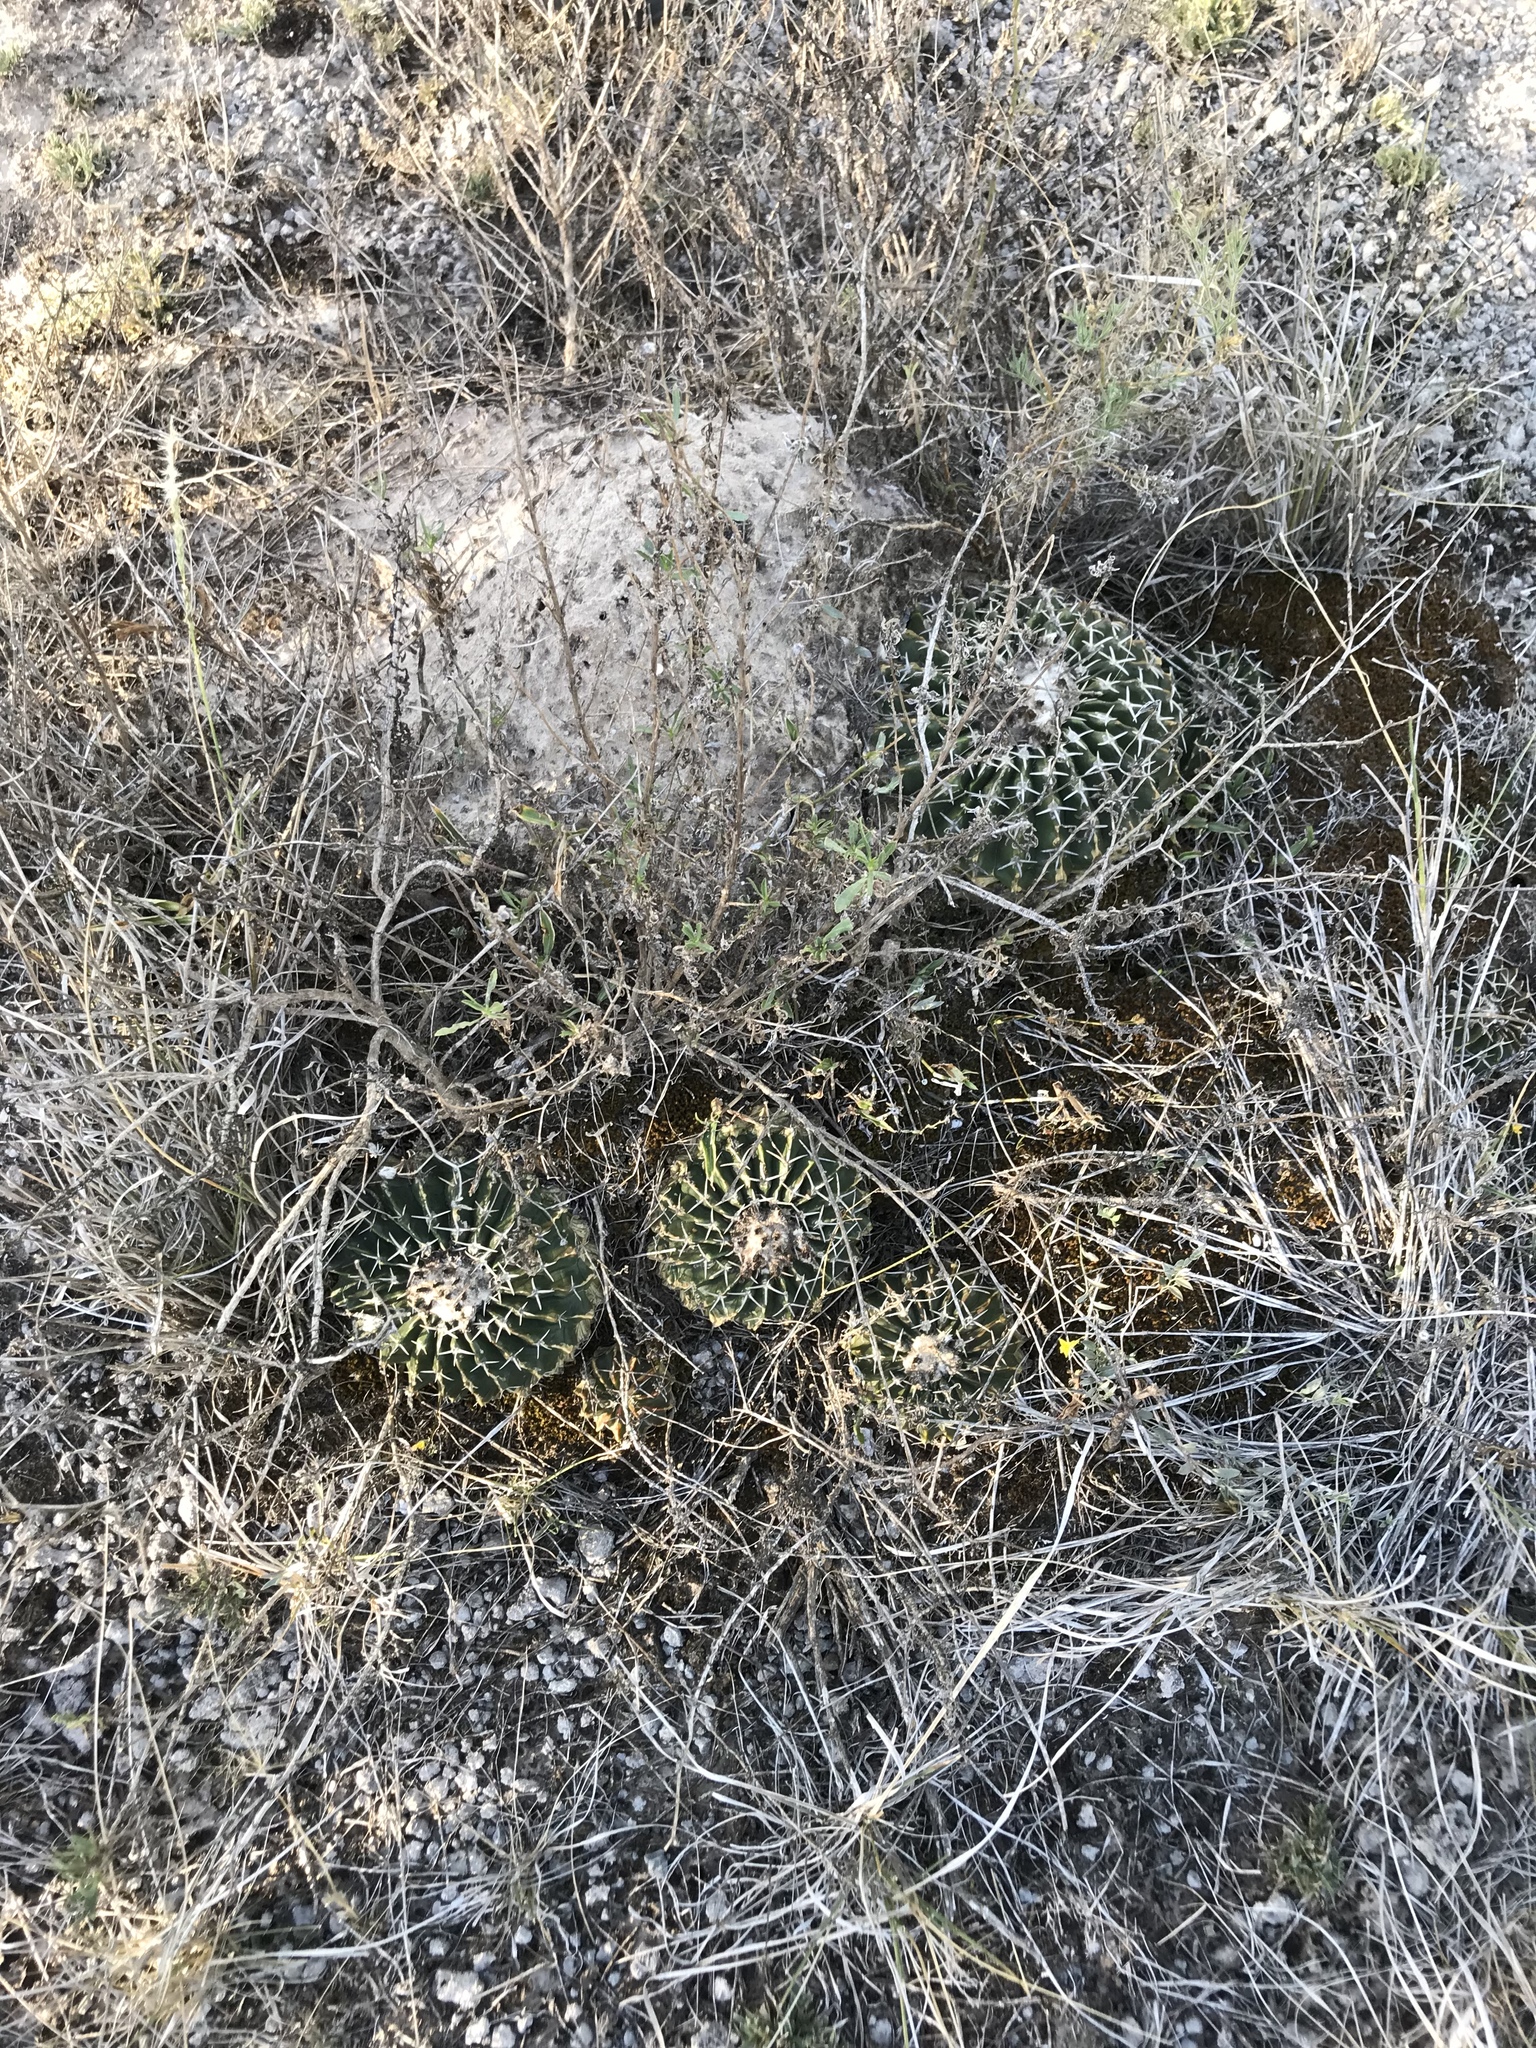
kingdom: Plantae
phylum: Tracheophyta
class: Magnoliopsida
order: Caryophyllales
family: Cactaceae
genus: Parodia
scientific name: Parodia erinacea
